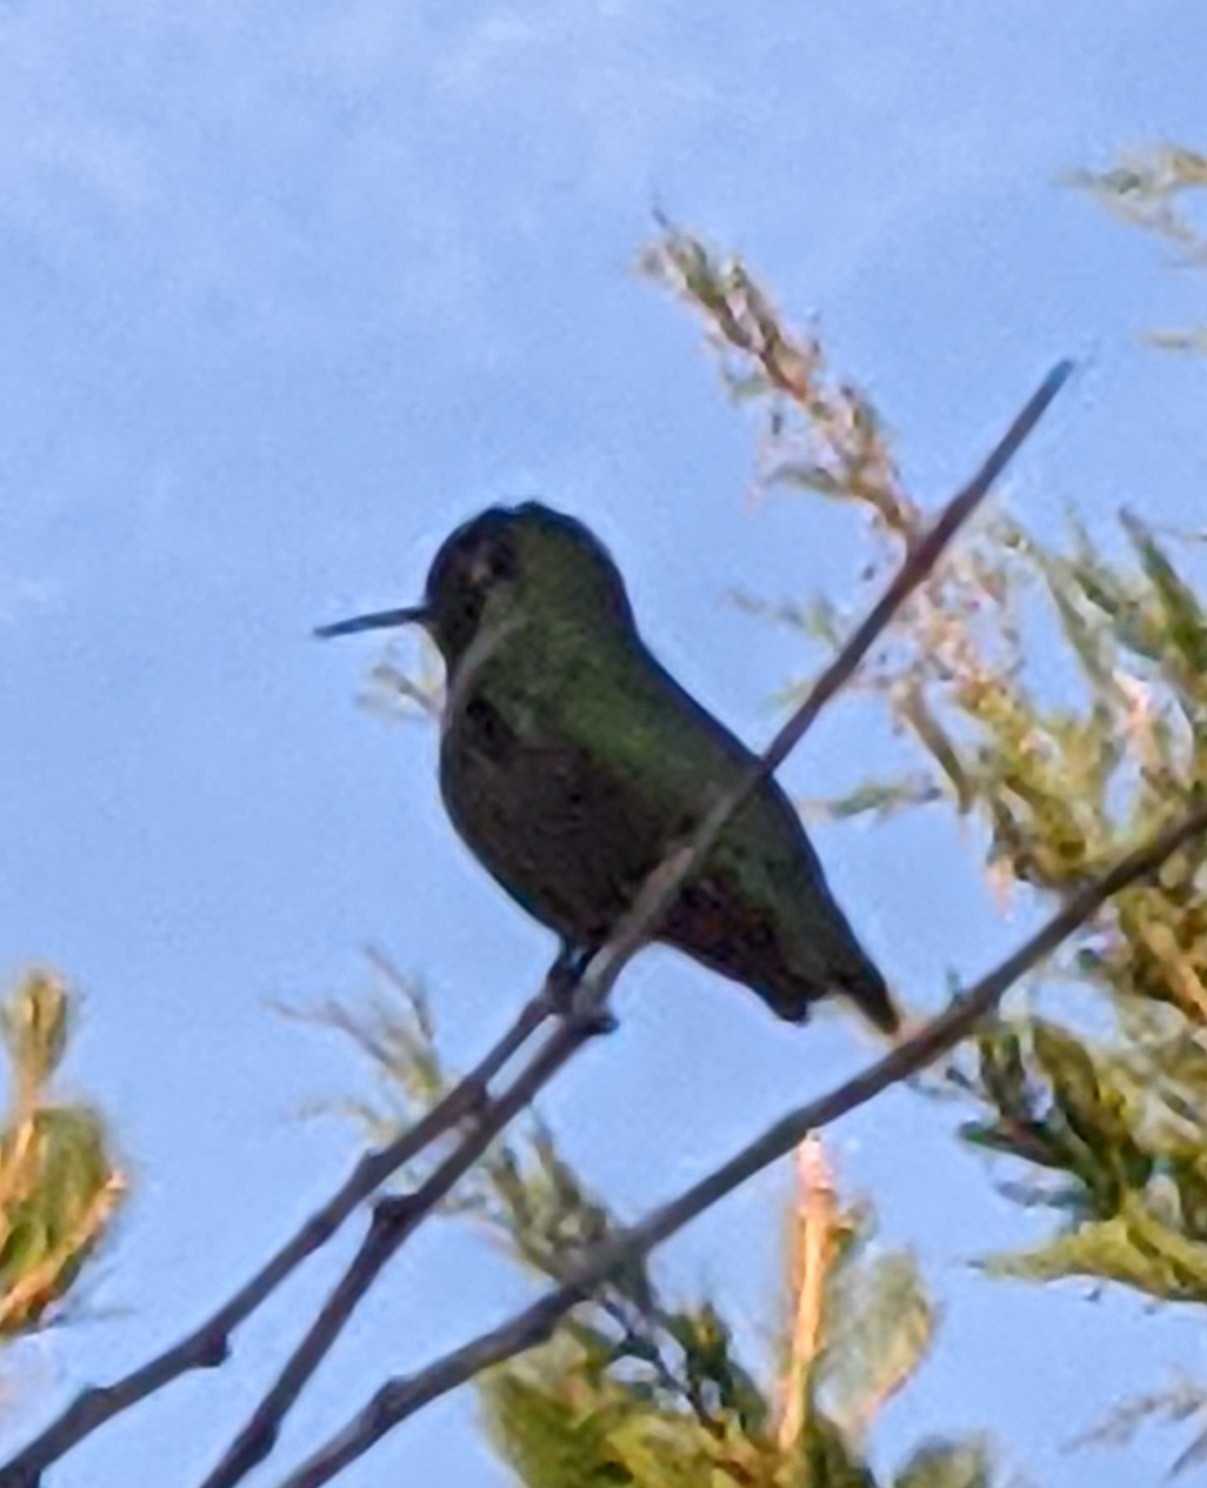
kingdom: Animalia
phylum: Chordata
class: Aves
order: Apodiformes
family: Trochilidae
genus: Calypte
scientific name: Calypte anna
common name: Anna's hummingbird
